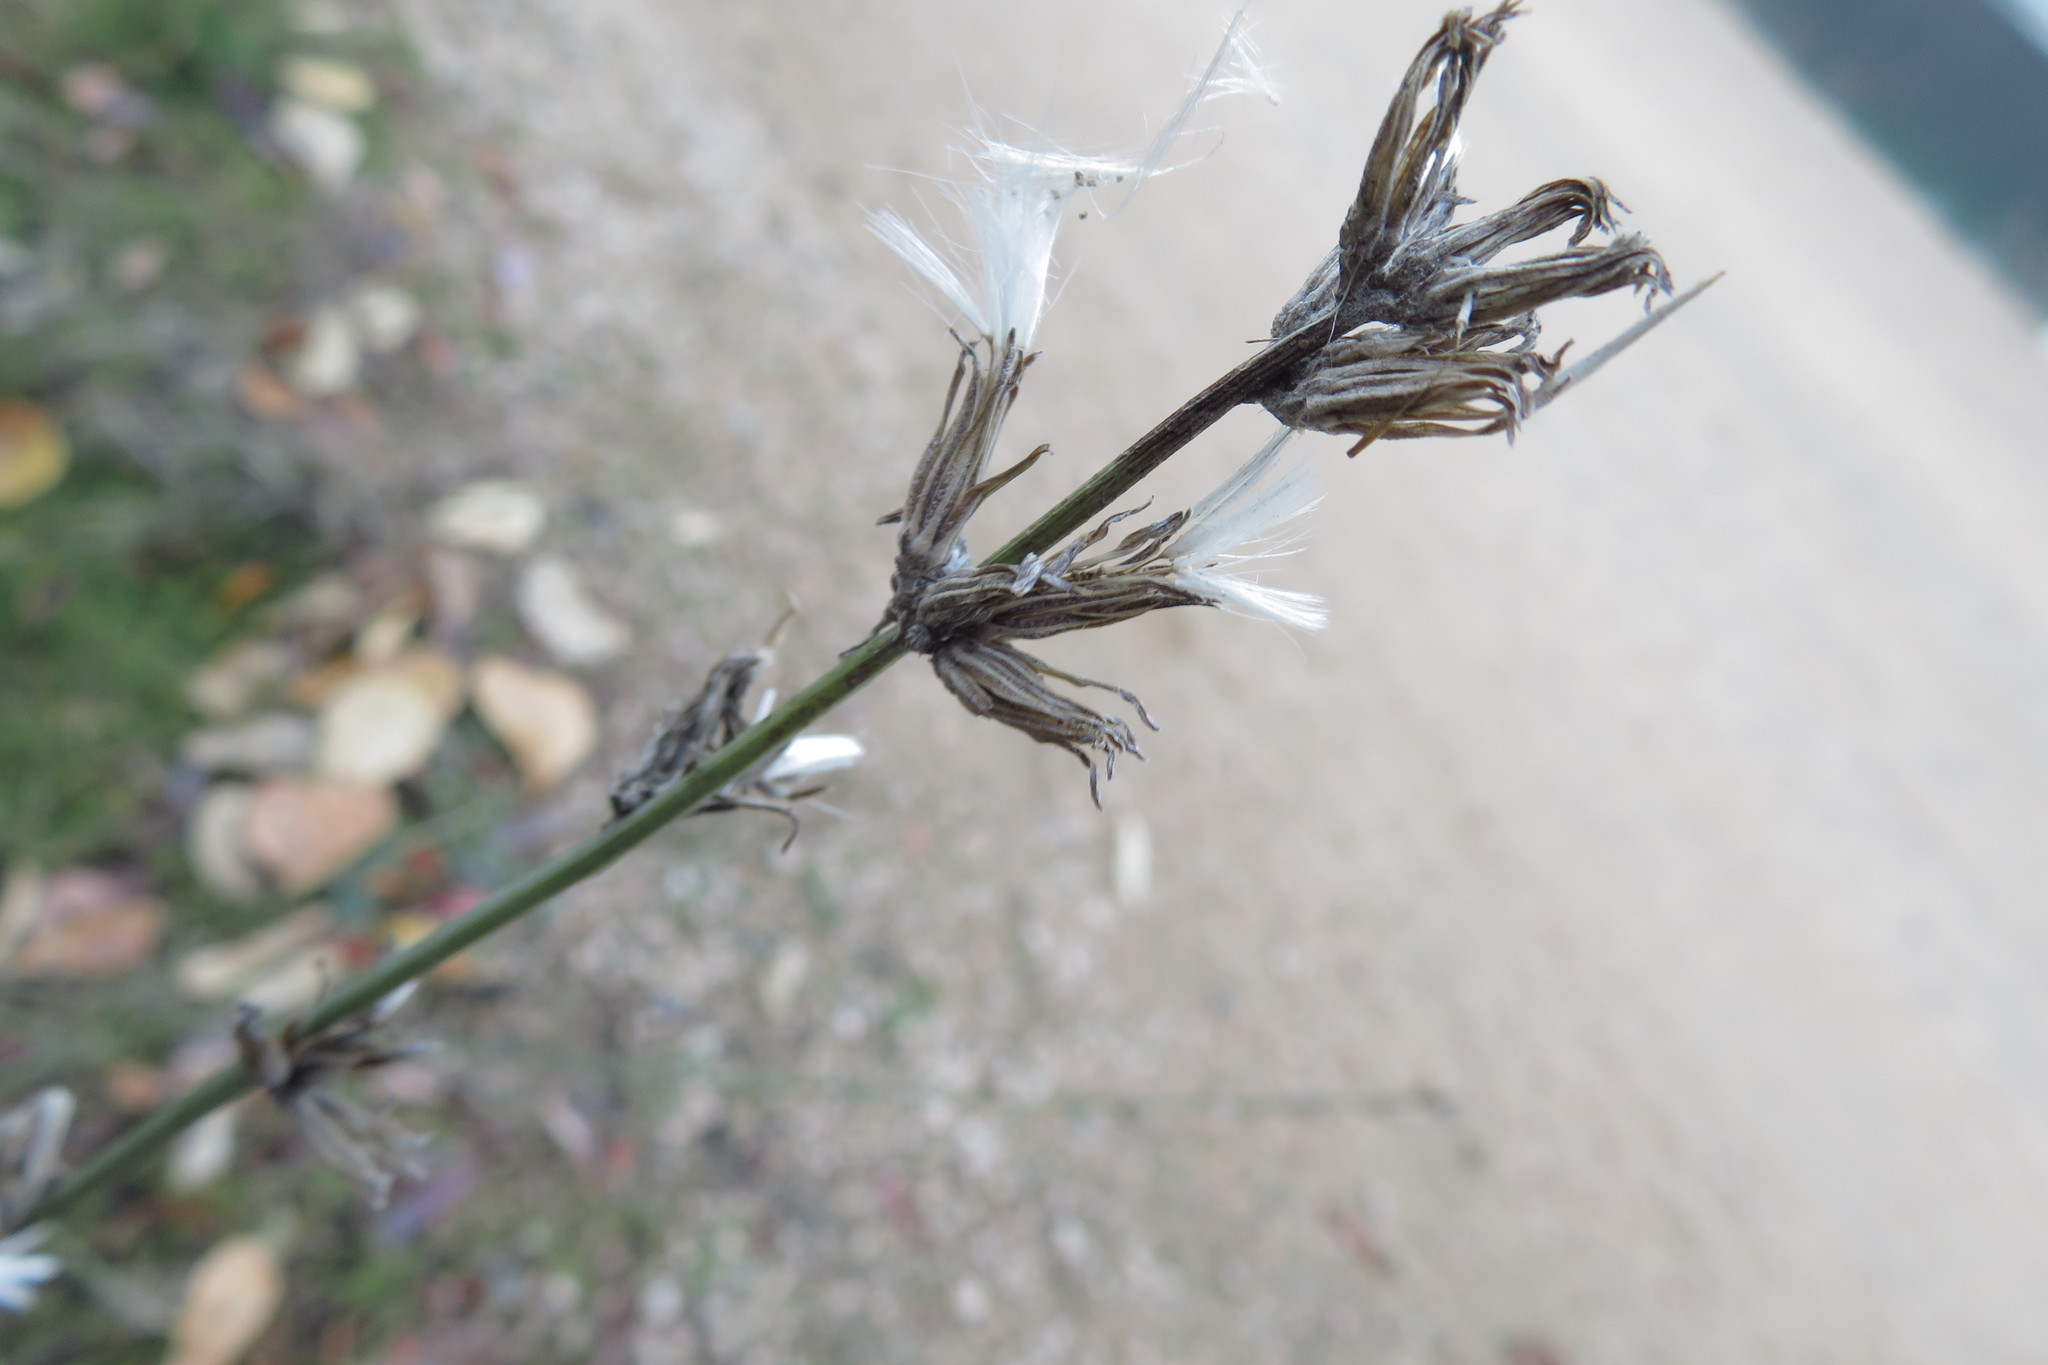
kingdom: Plantae
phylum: Tracheophyta
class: Magnoliopsida
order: Asterales
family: Asteraceae
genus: Chondrilla
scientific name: Chondrilla juncea
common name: Skeleton weed
